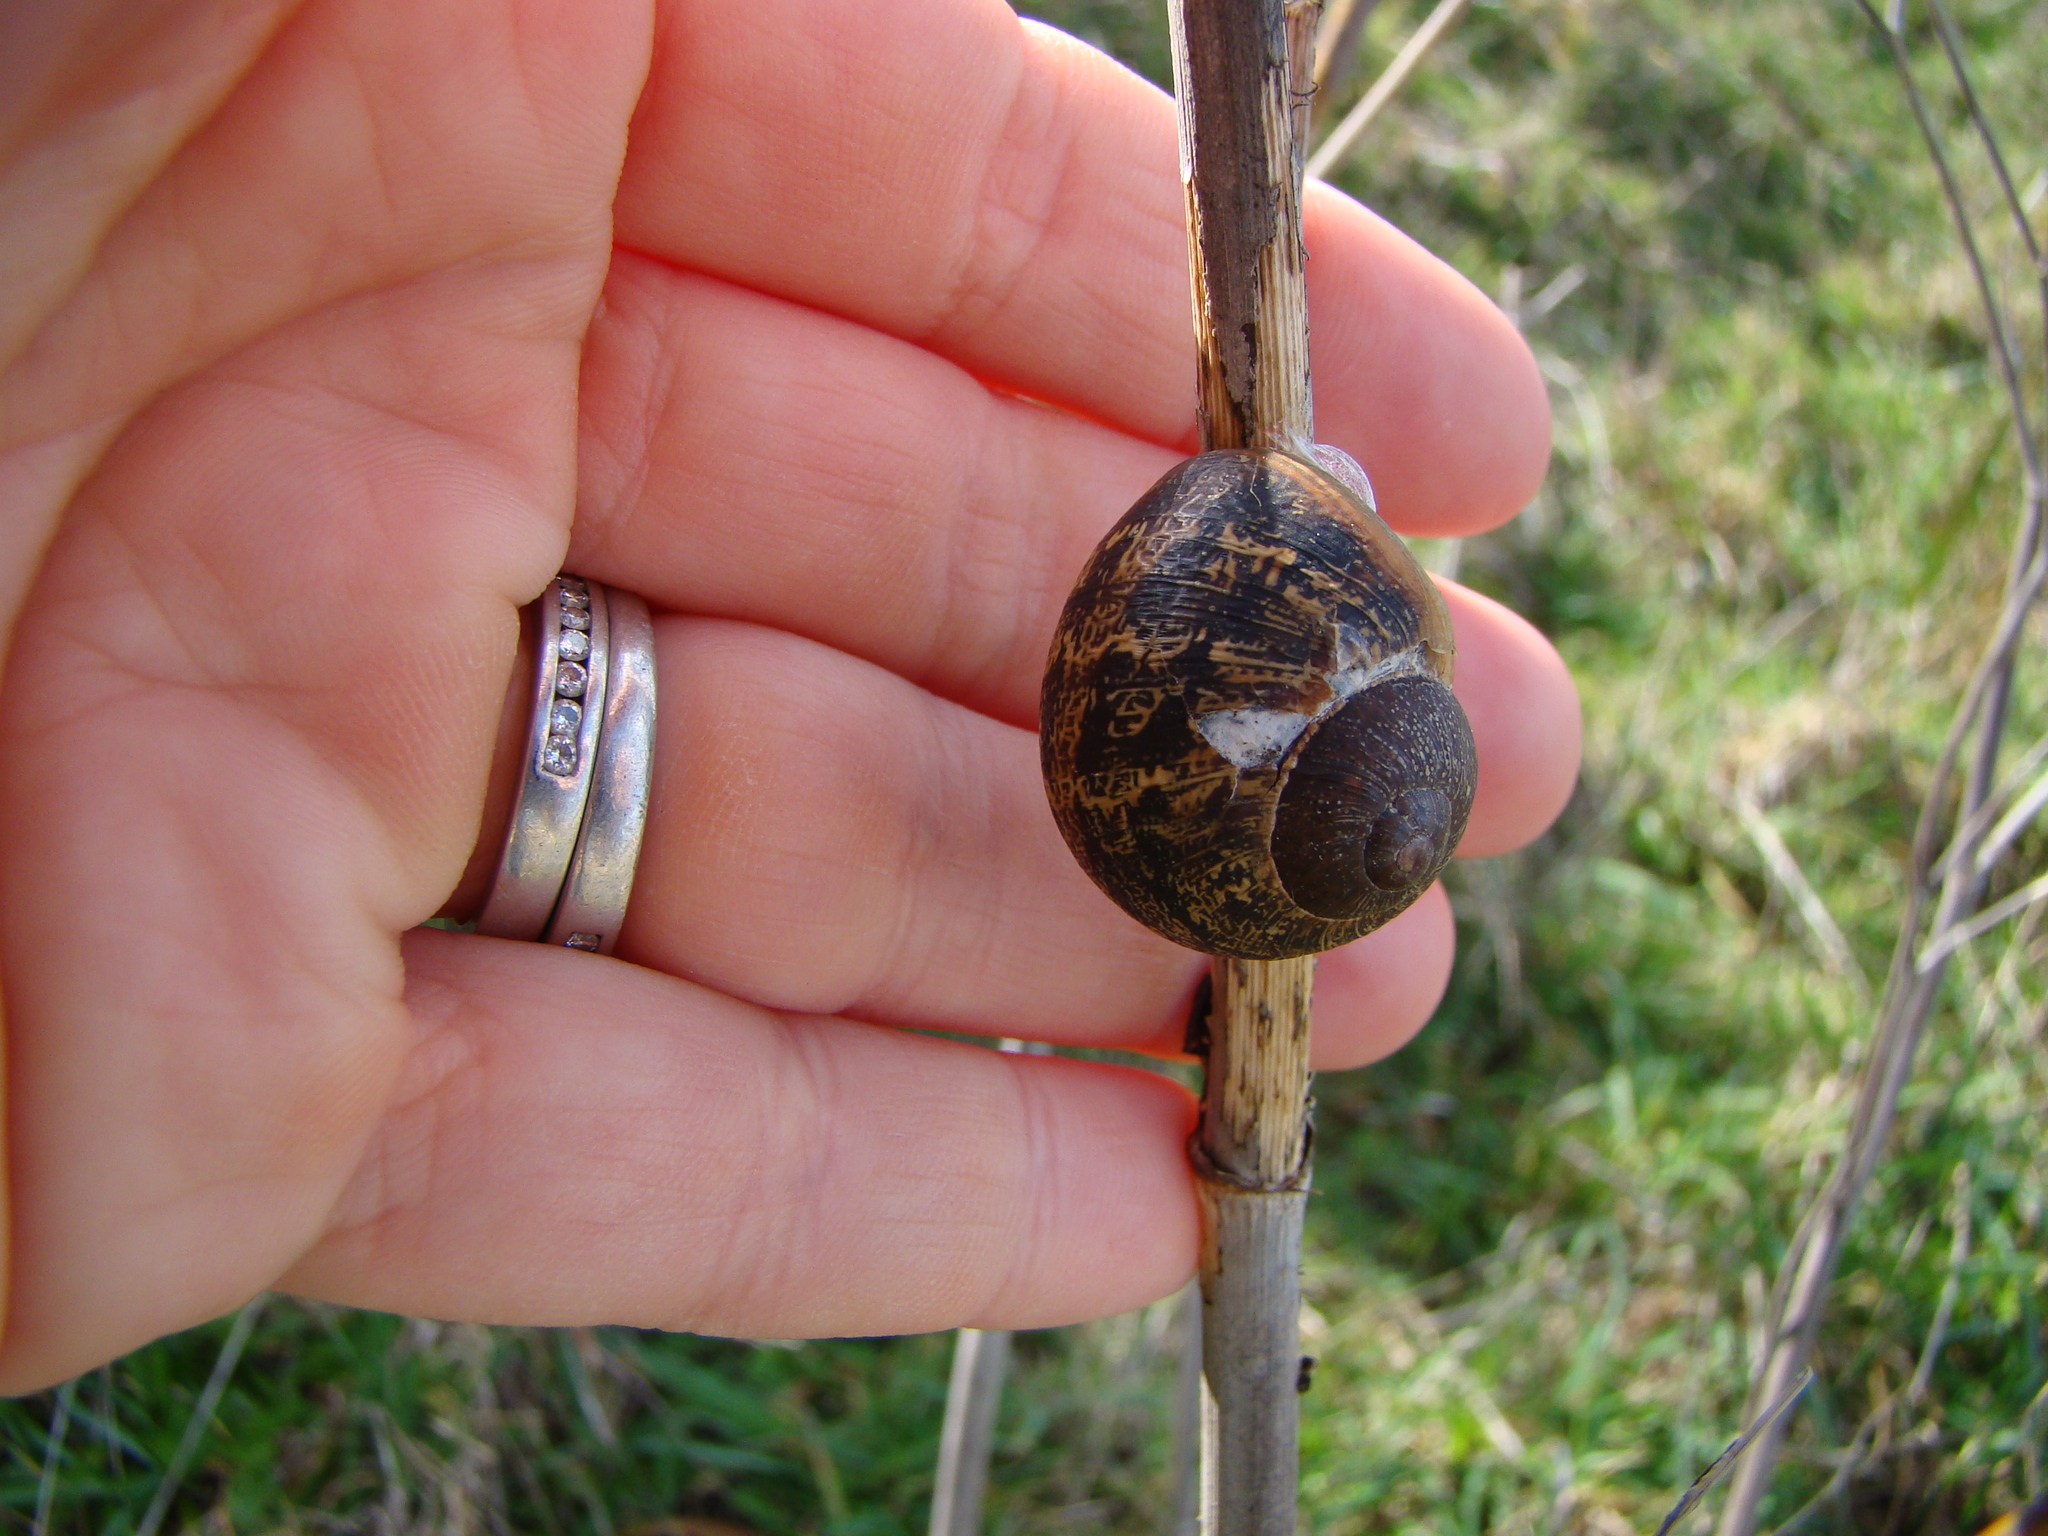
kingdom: Animalia
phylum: Mollusca
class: Gastropoda
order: Stylommatophora
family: Helicidae
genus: Cornu
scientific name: Cornu aspersum
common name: Brown garden snail
